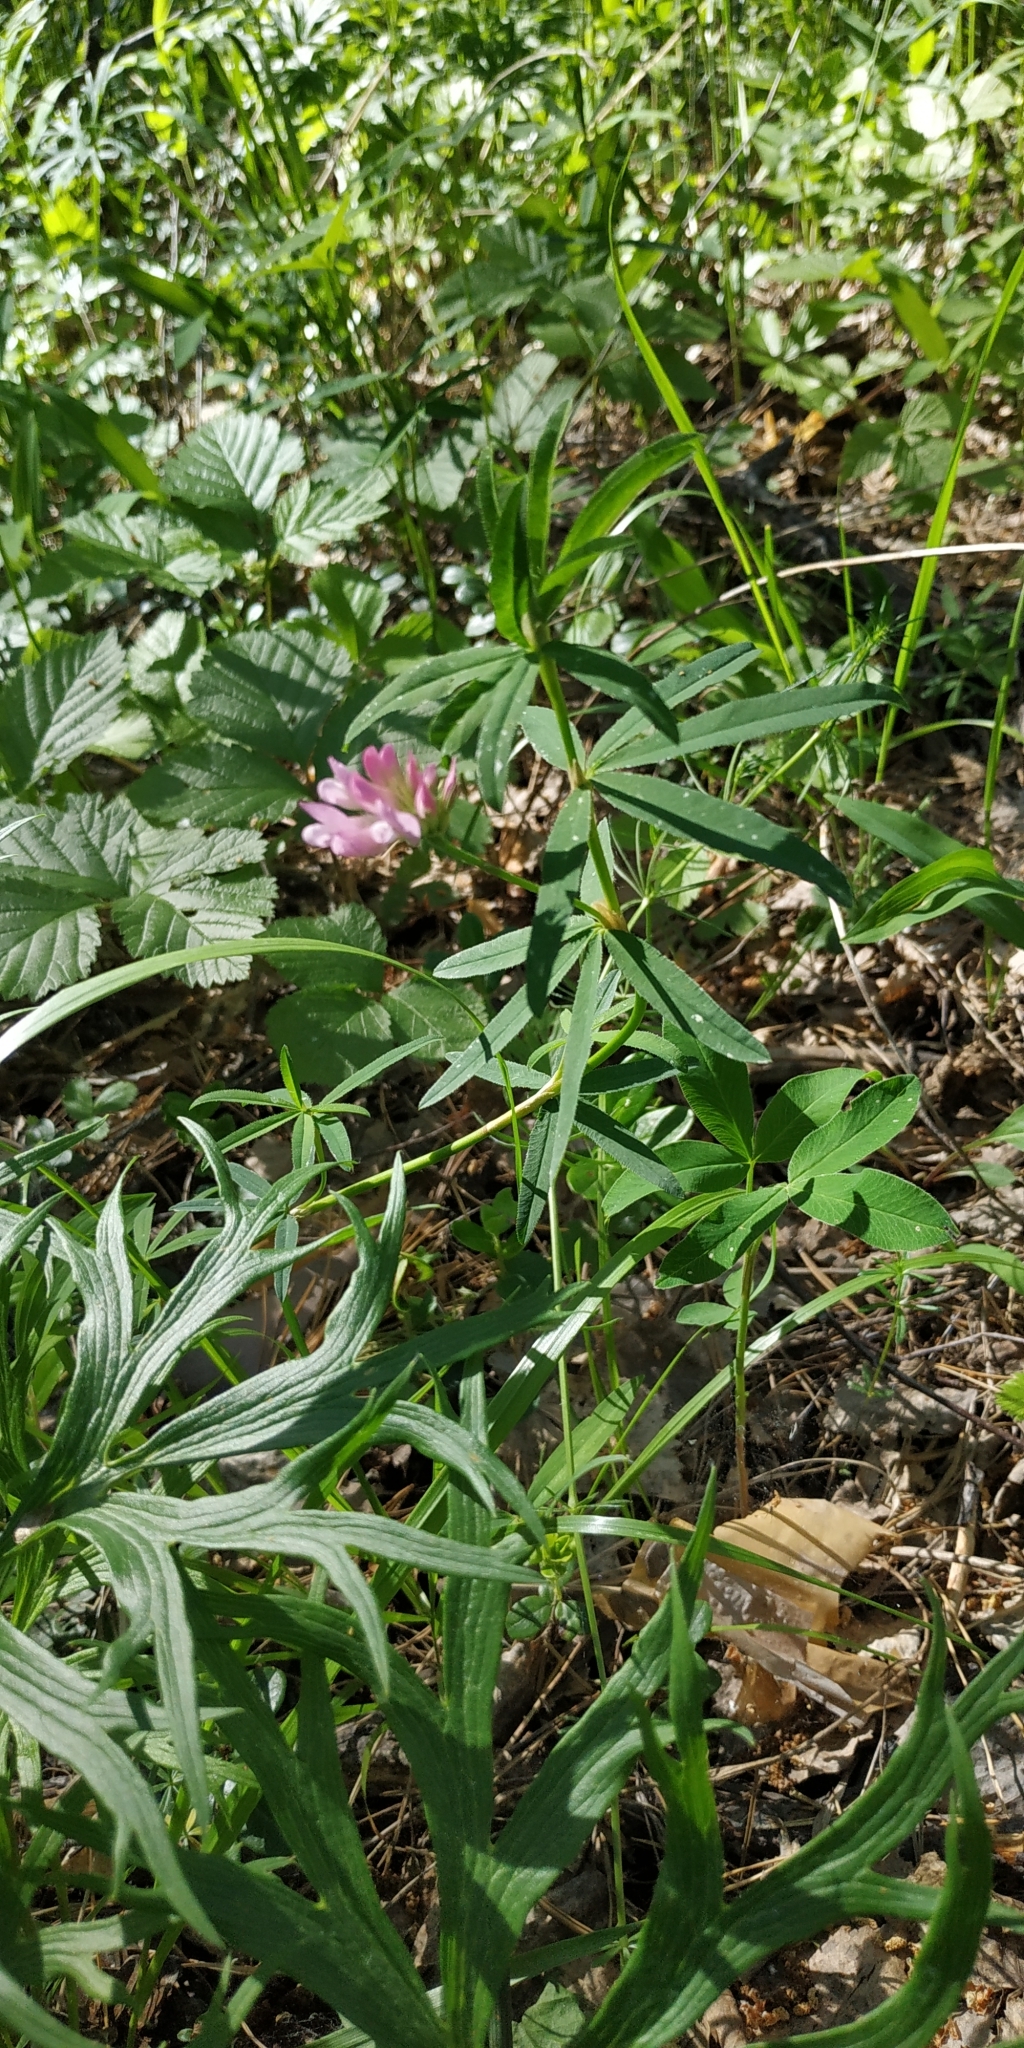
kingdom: Plantae
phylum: Tracheophyta
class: Magnoliopsida
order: Fabales
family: Fabaceae
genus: Trifolium
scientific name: Trifolium lupinaster
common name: Lupine clover
